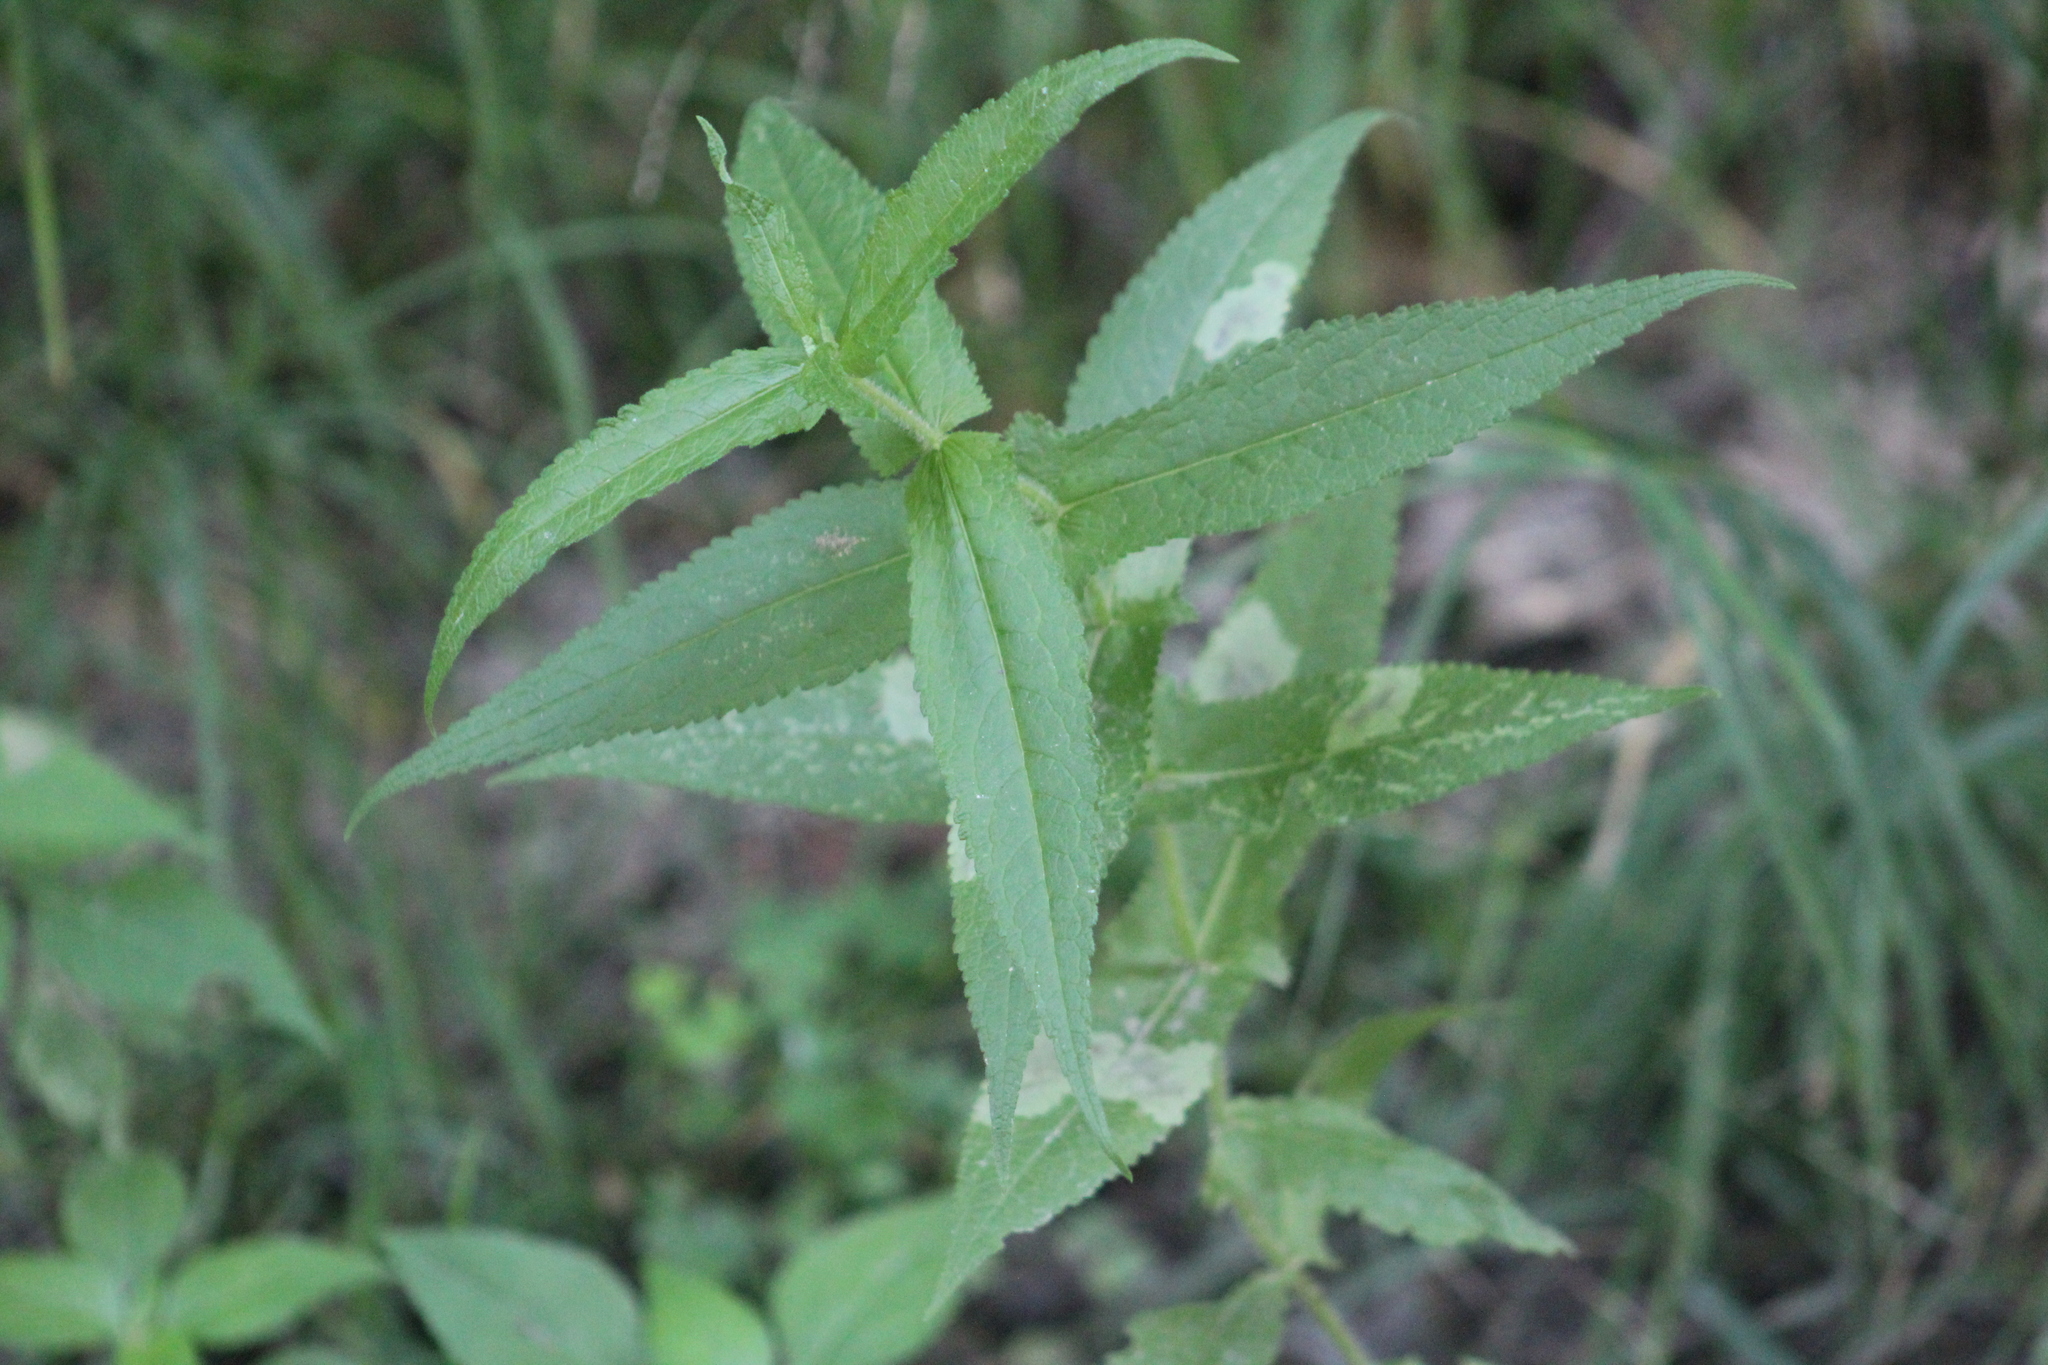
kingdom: Plantae
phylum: Tracheophyta
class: Magnoliopsida
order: Asterales
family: Asteraceae
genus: Eupatorium
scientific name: Eupatorium perfoliatum
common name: Boneset
